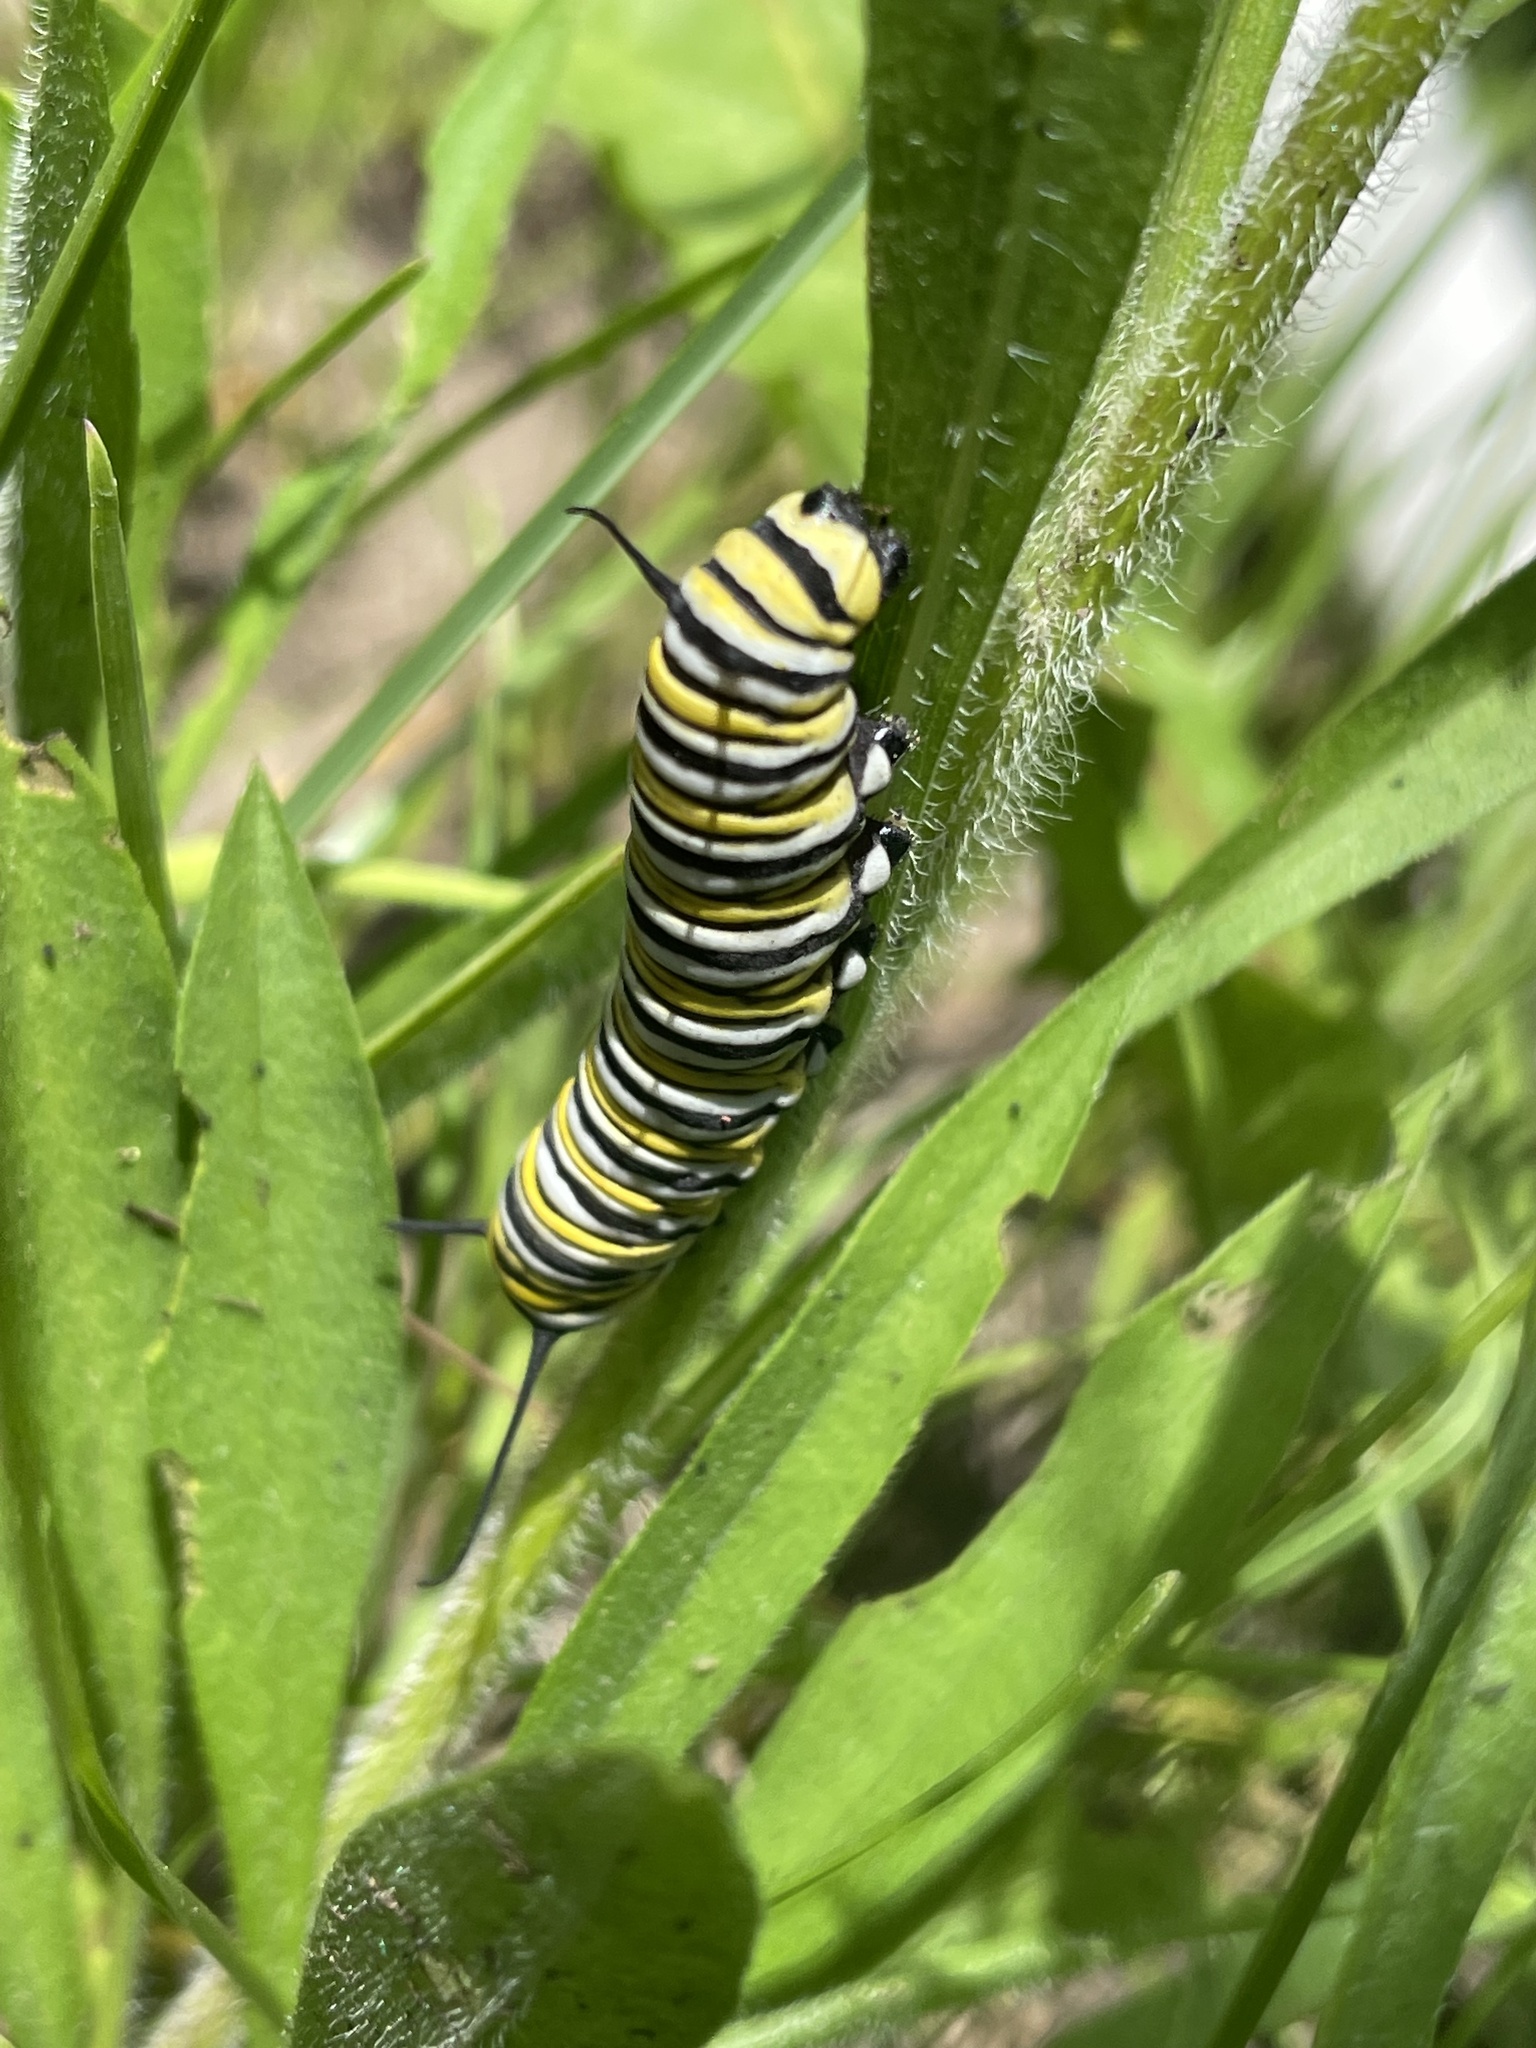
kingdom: Animalia
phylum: Arthropoda
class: Insecta
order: Lepidoptera
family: Nymphalidae
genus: Danaus
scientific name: Danaus plexippus
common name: Monarch
